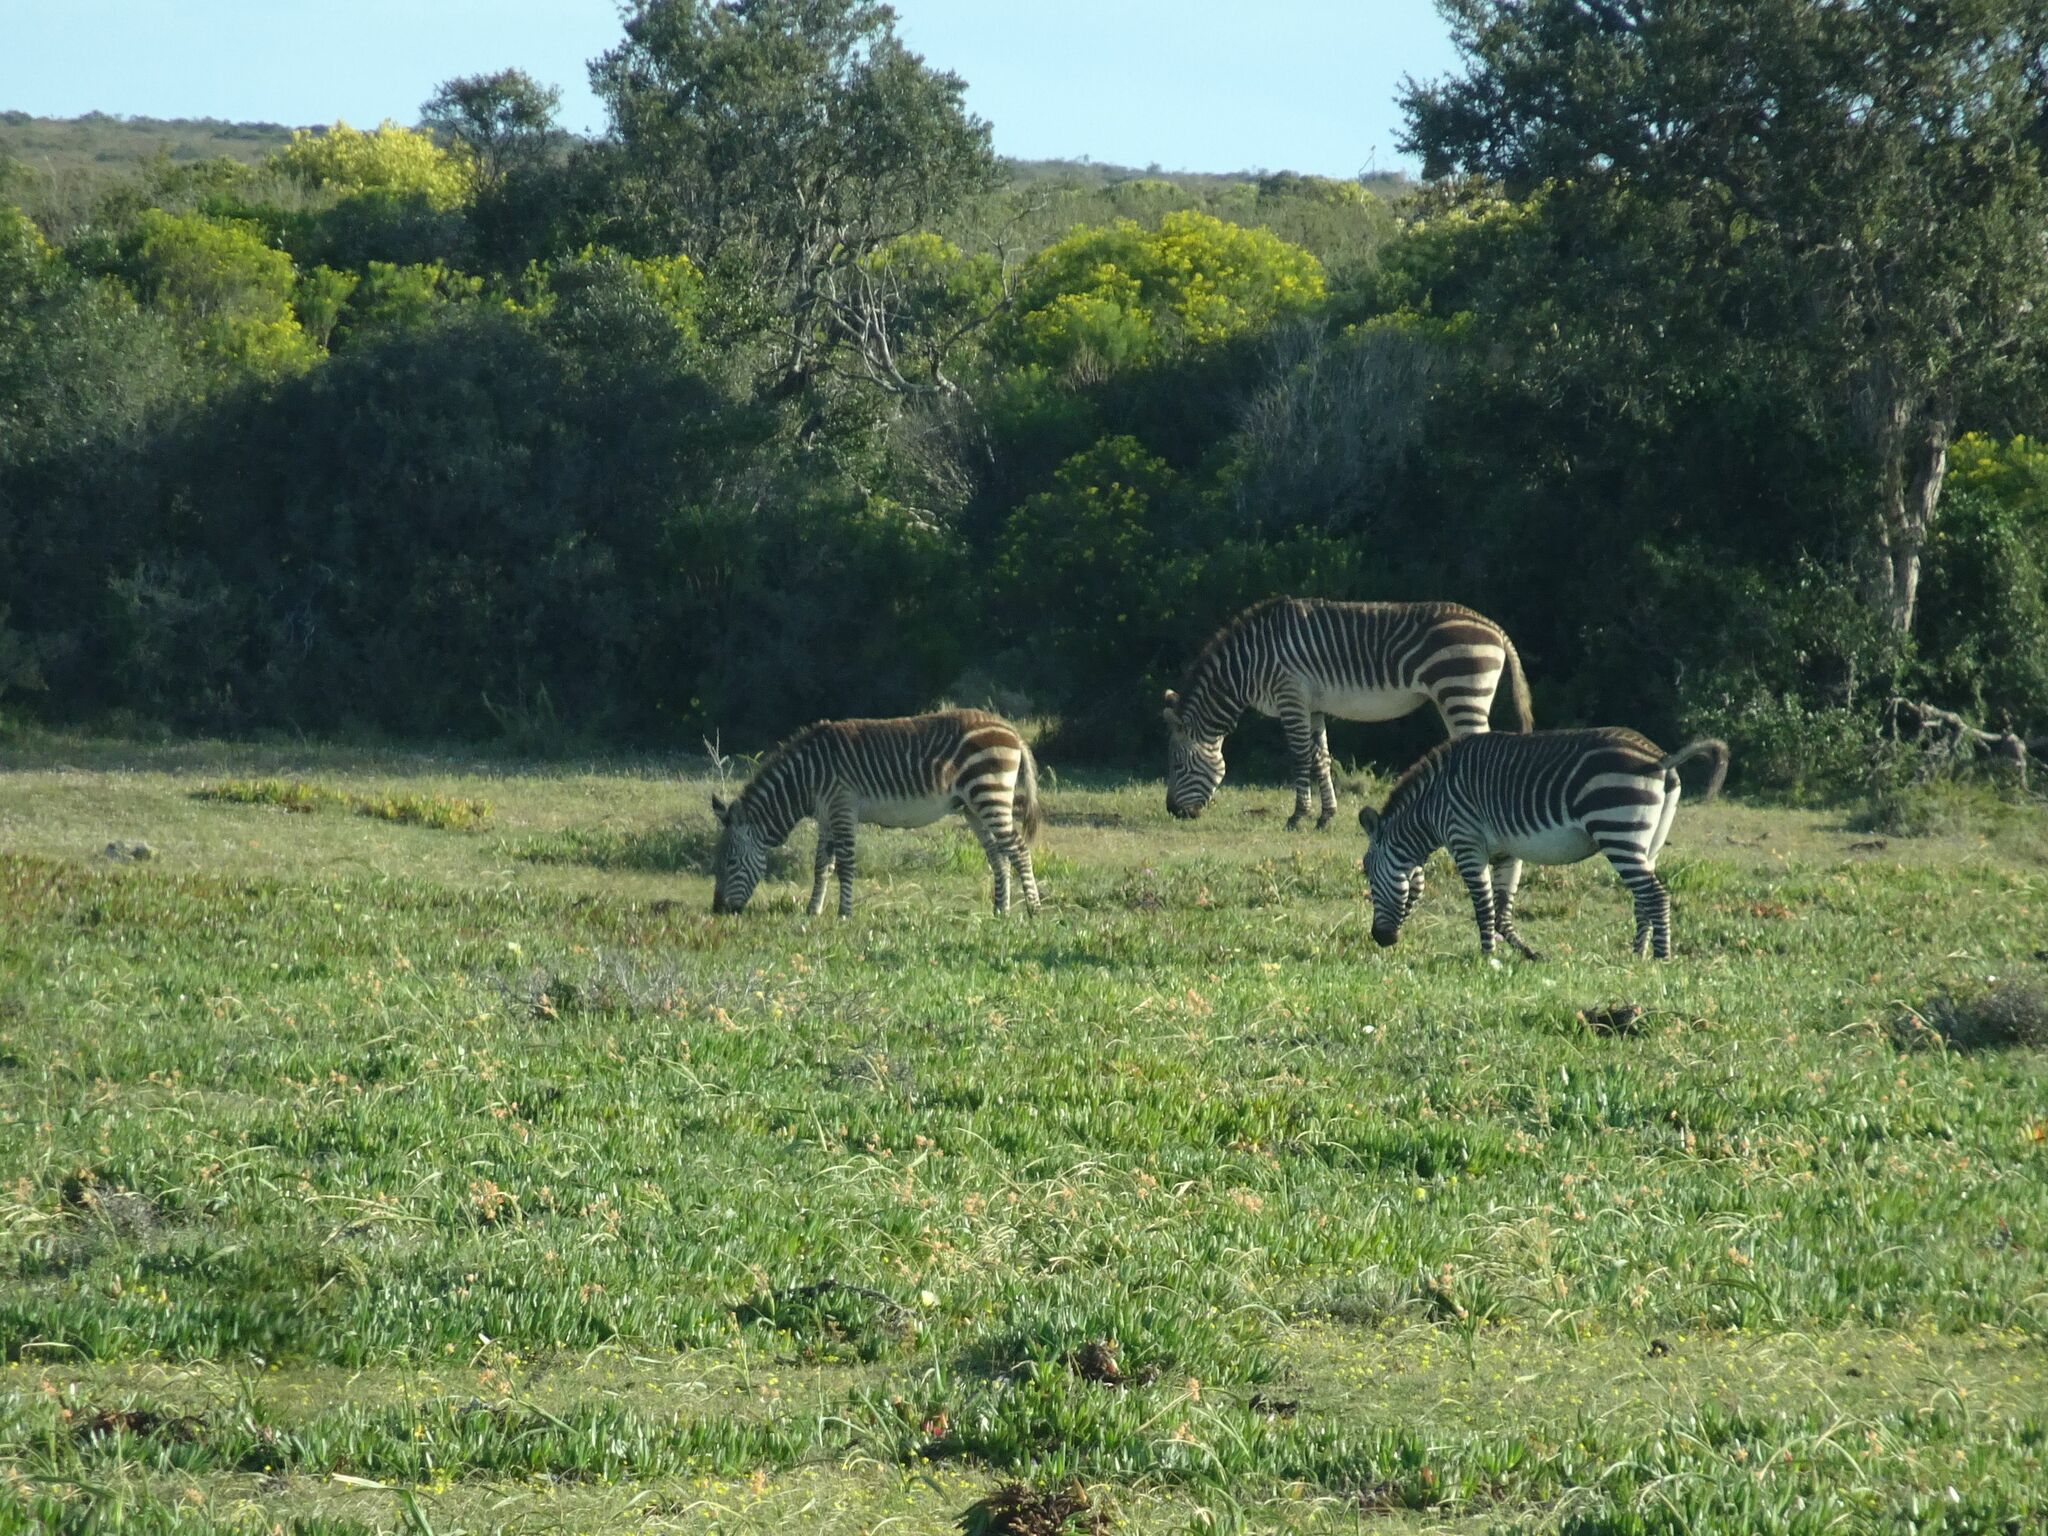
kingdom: Animalia
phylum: Chordata
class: Mammalia
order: Perissodactyla
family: Equidae
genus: Equus
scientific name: Equus zebra
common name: Mountain zebra
